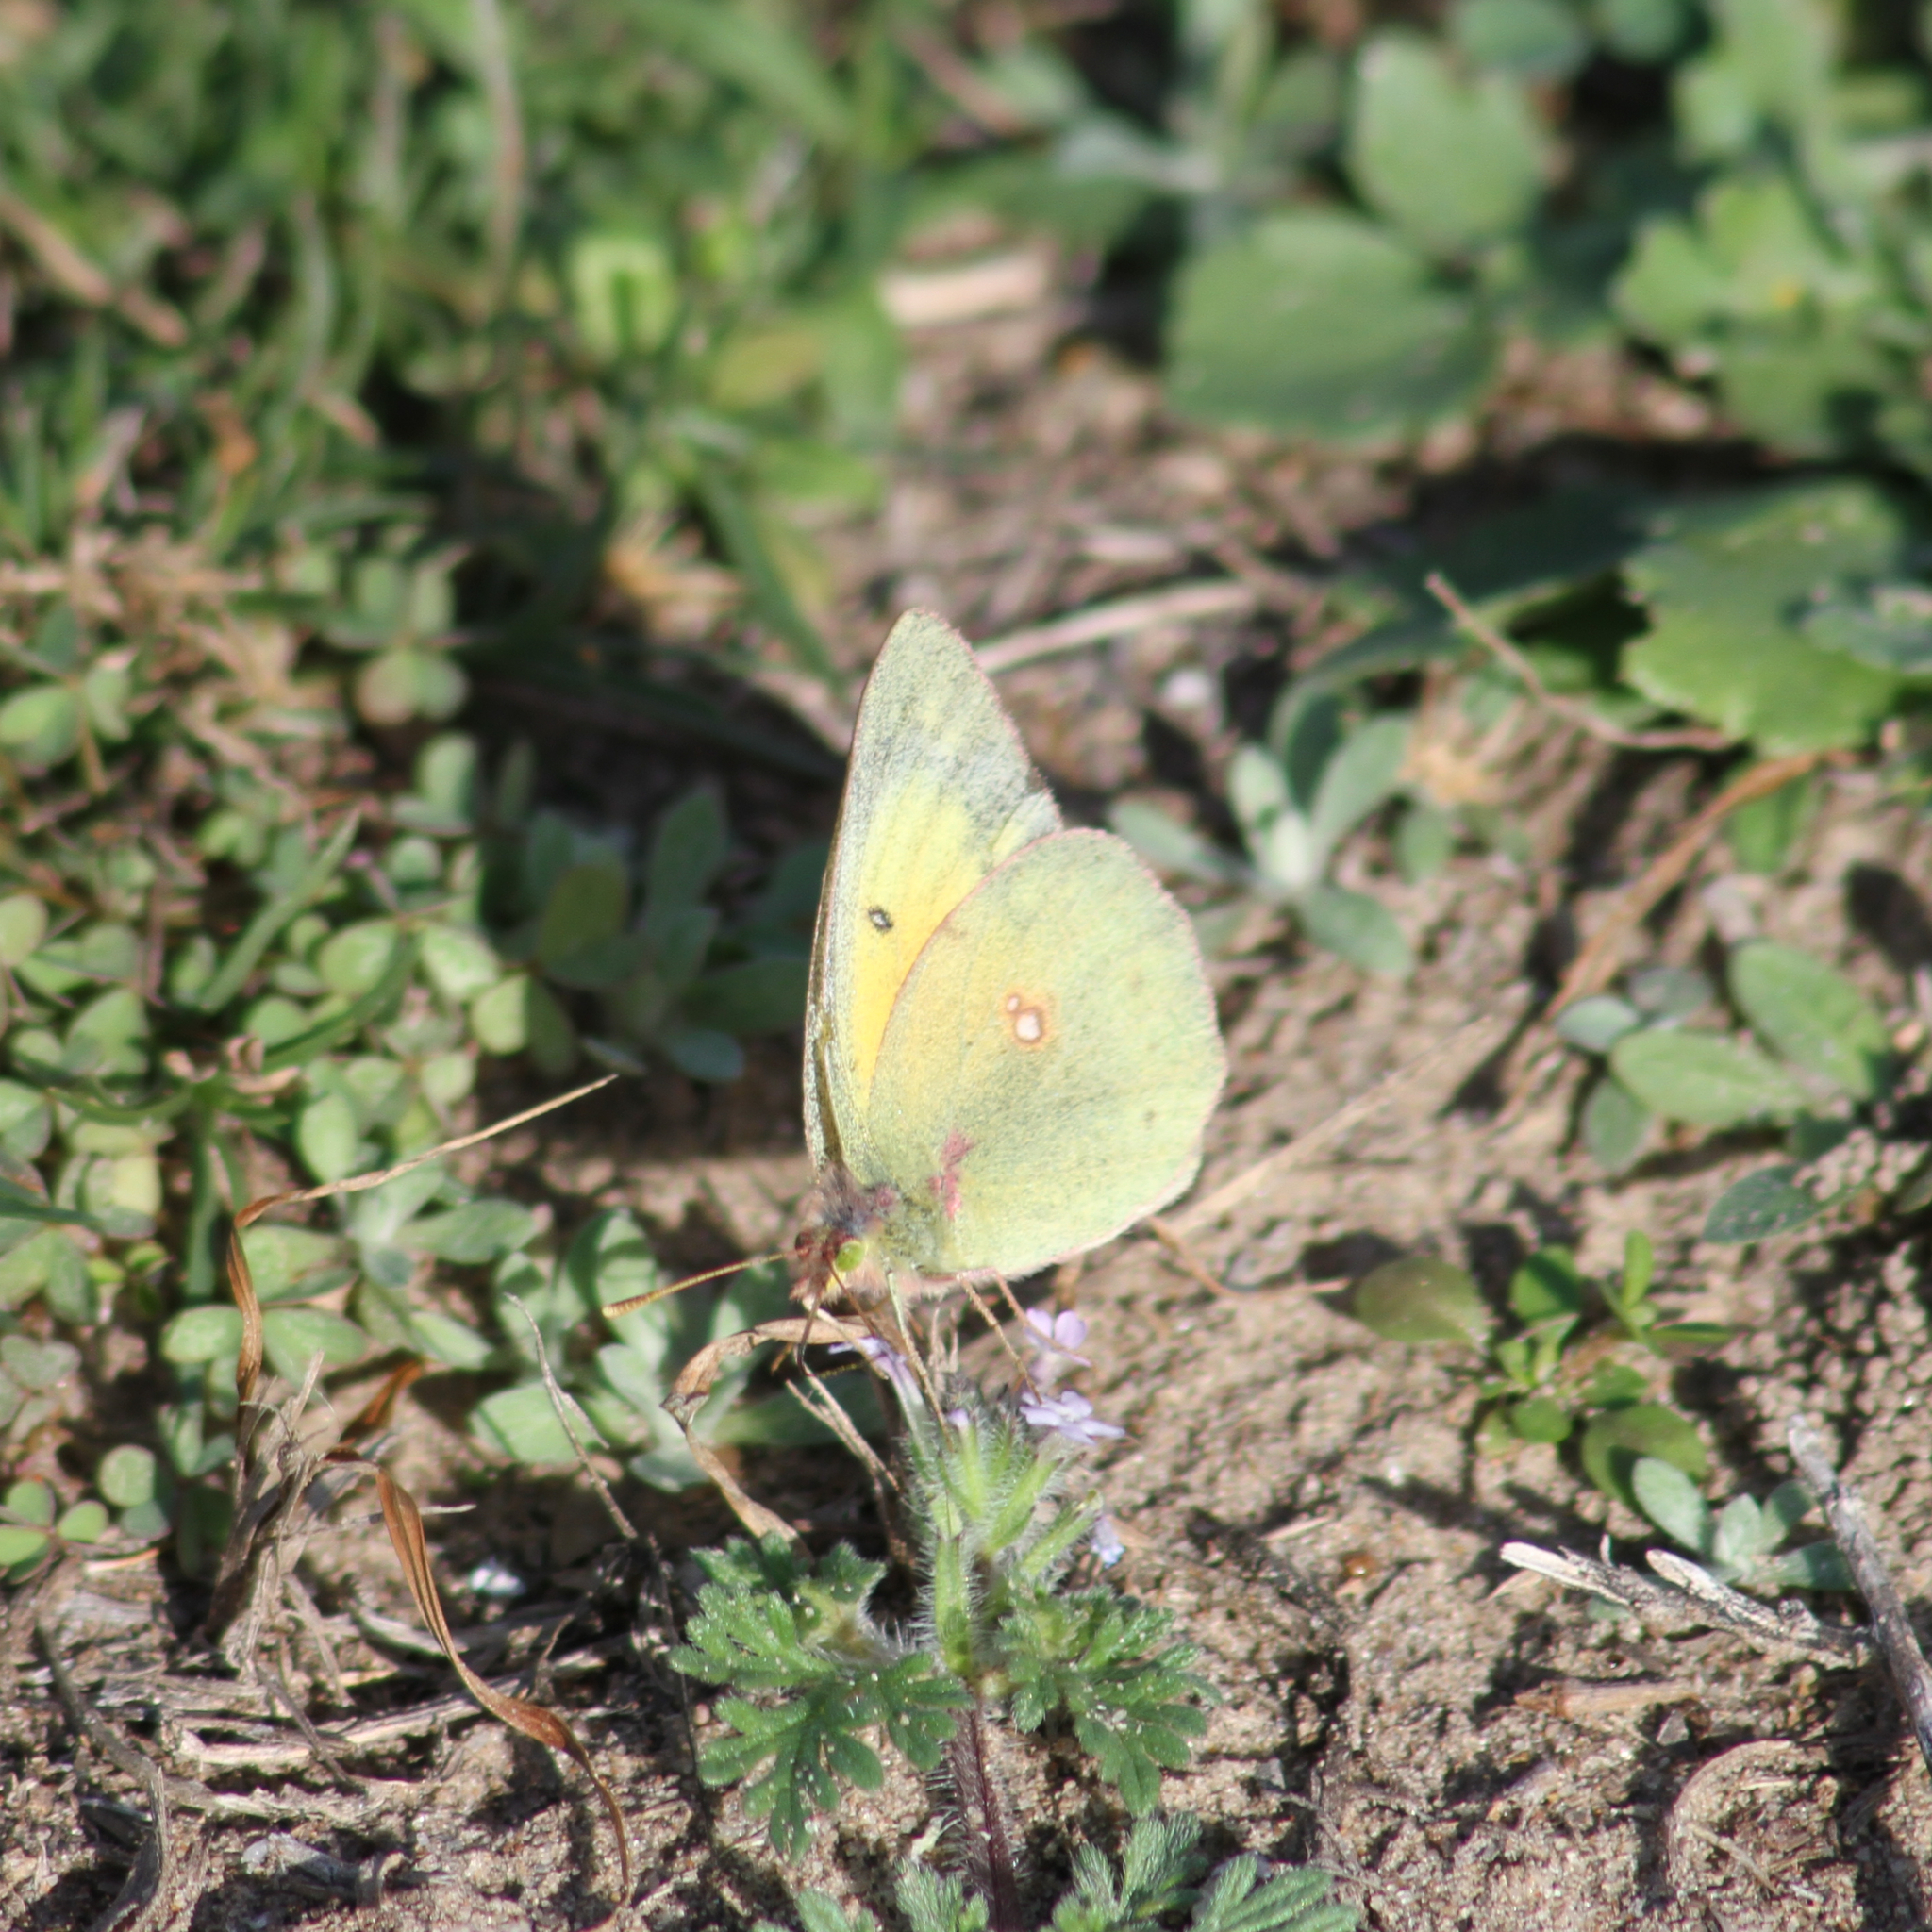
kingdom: Animalia
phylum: Arthropoda
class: Insecta
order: Lepidoptera
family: Pieridae
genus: Colias
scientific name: Colias eurytheme
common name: Alfalfa butterfly
